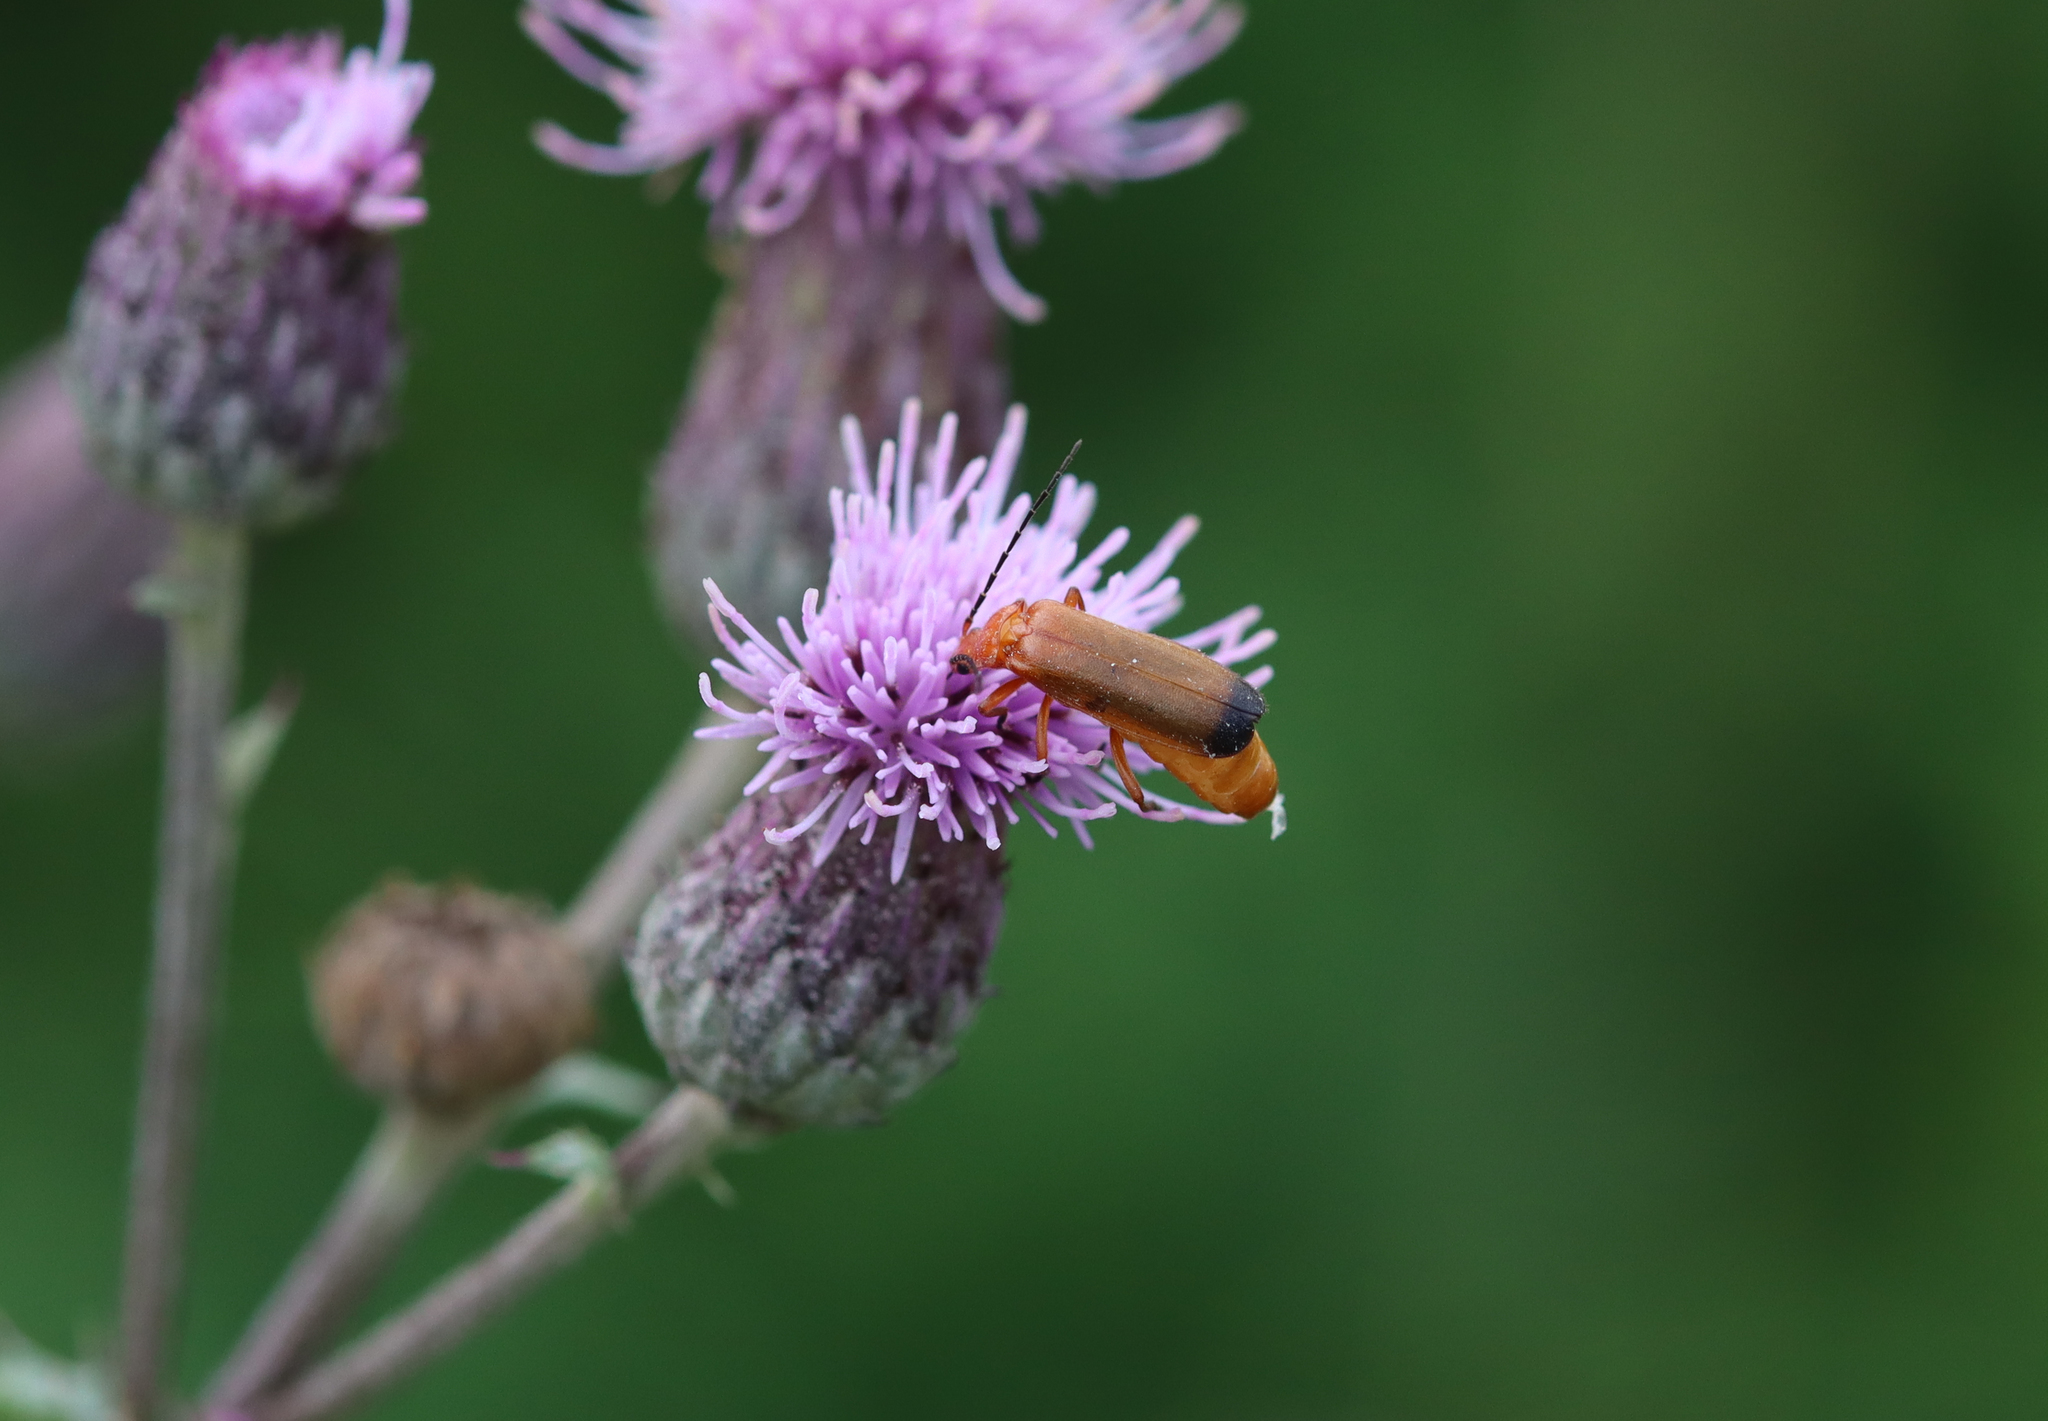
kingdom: Animalia
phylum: Arthropoda
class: Insecta
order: Coleoptera
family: Cantharidae
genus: Rhagonycha
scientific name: Rhagonycha fulva
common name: Common red soldier beetle
